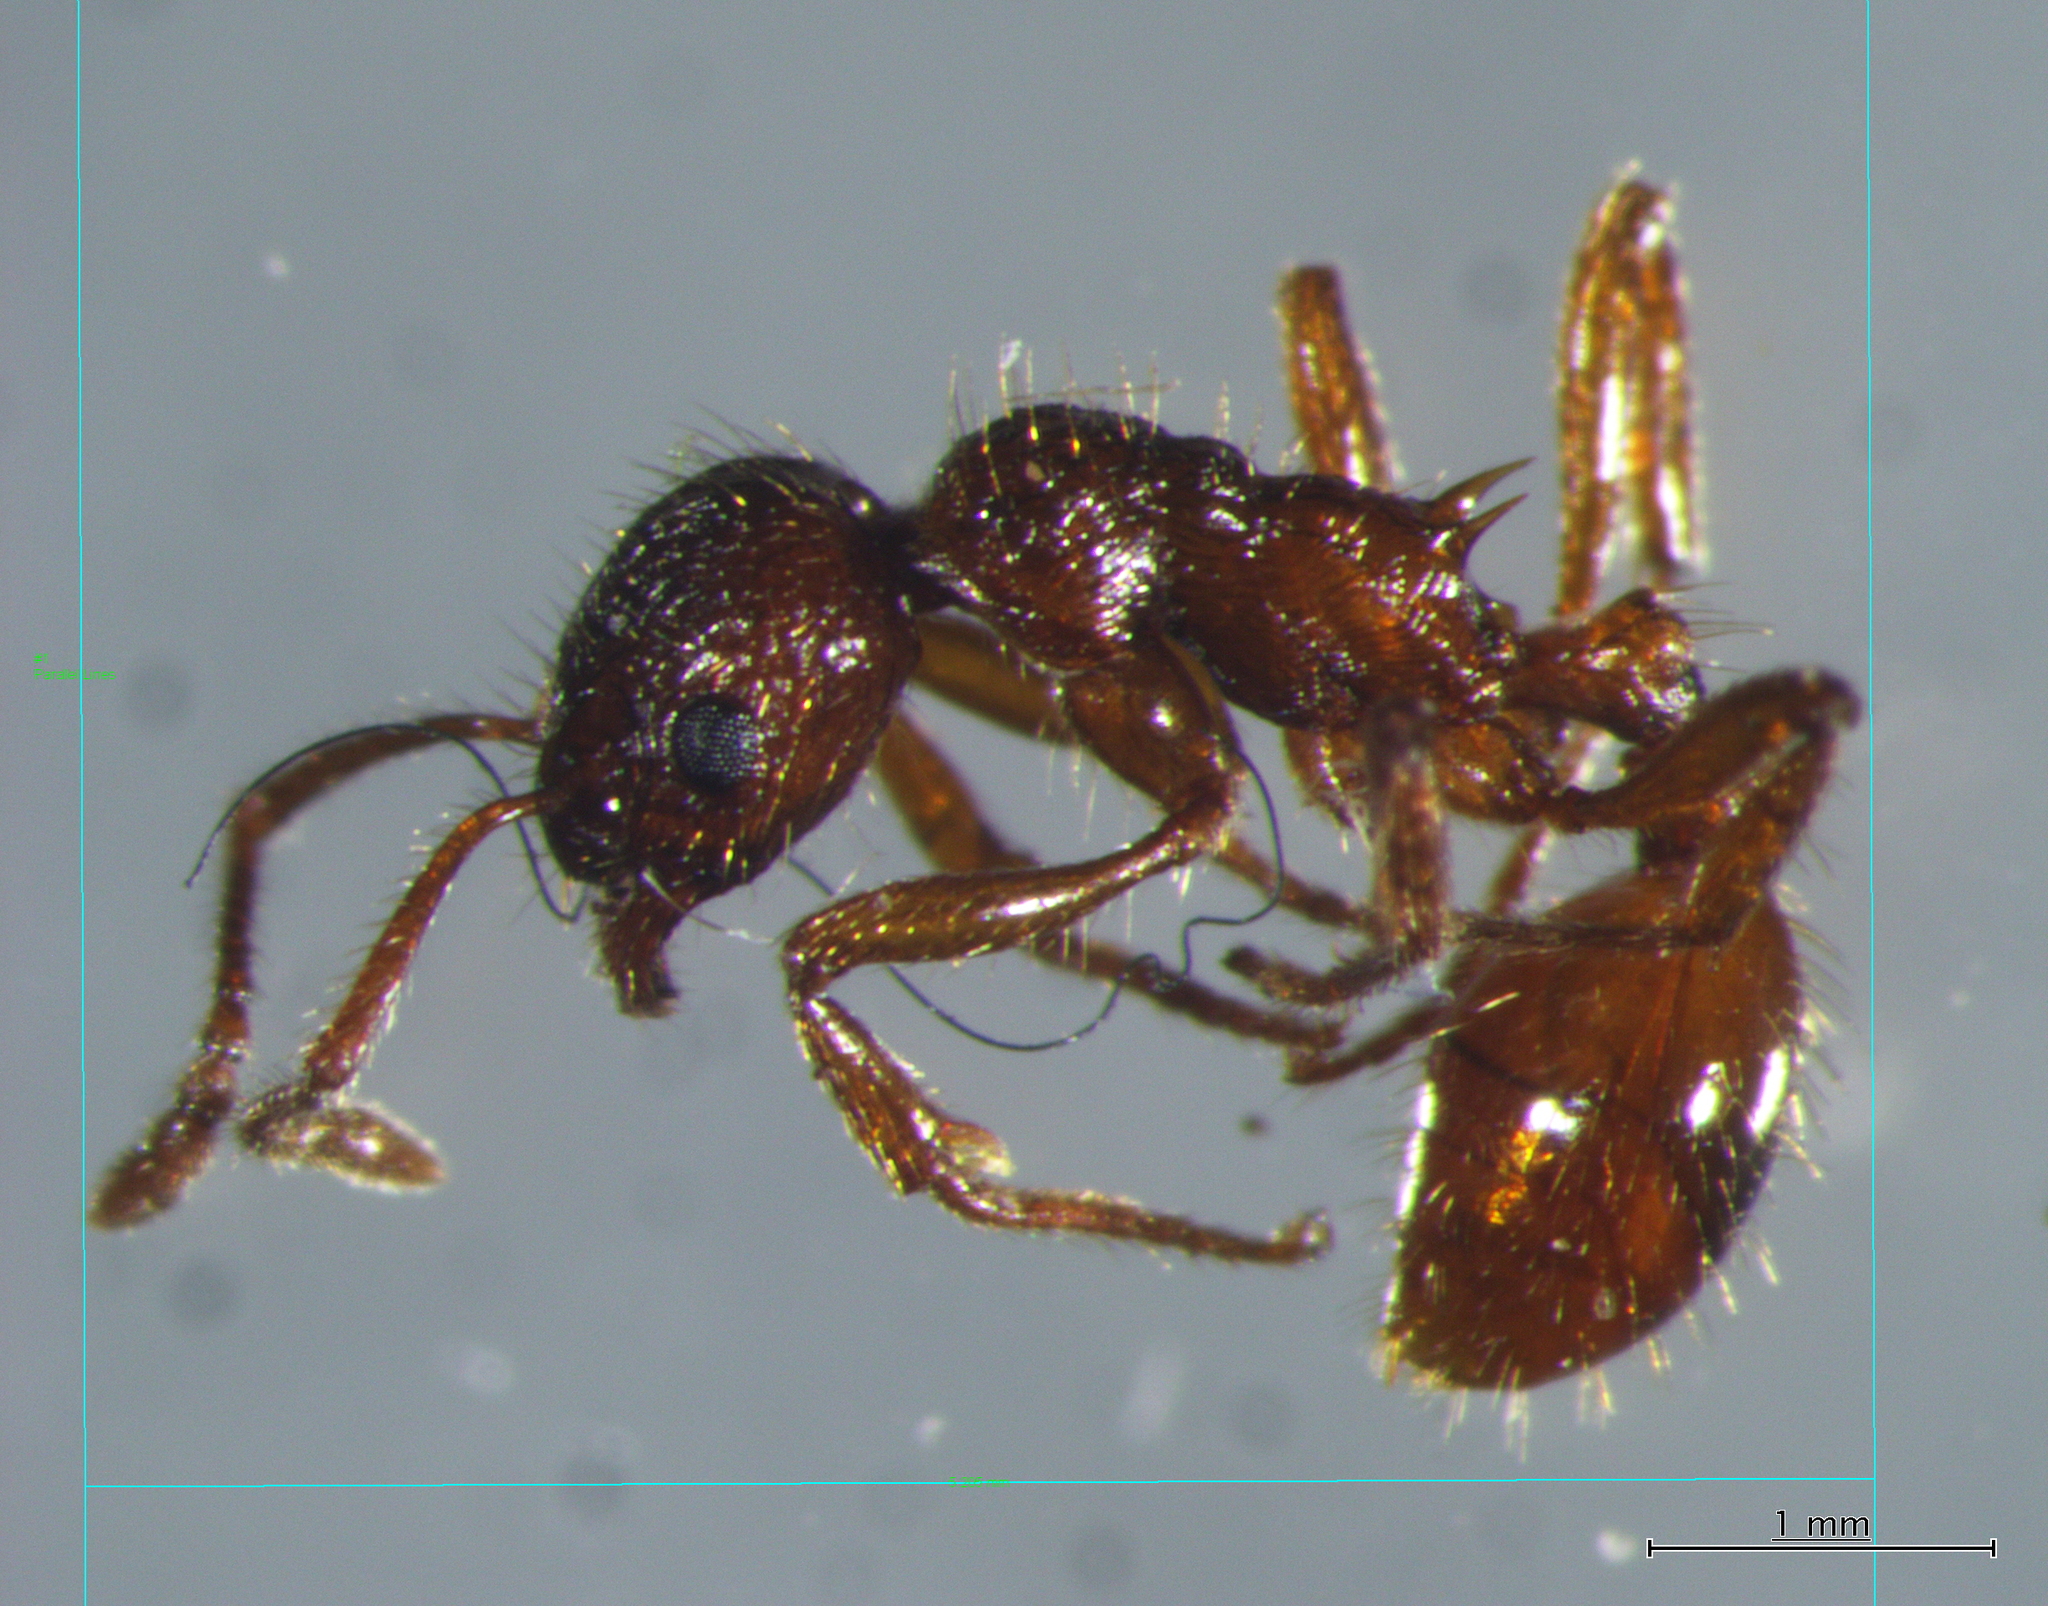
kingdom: Animalia
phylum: Arthropoda
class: Insecta
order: Hymenoptera
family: Formicidae
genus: Myrmica
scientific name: Myrmica rubra
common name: European fire ant
